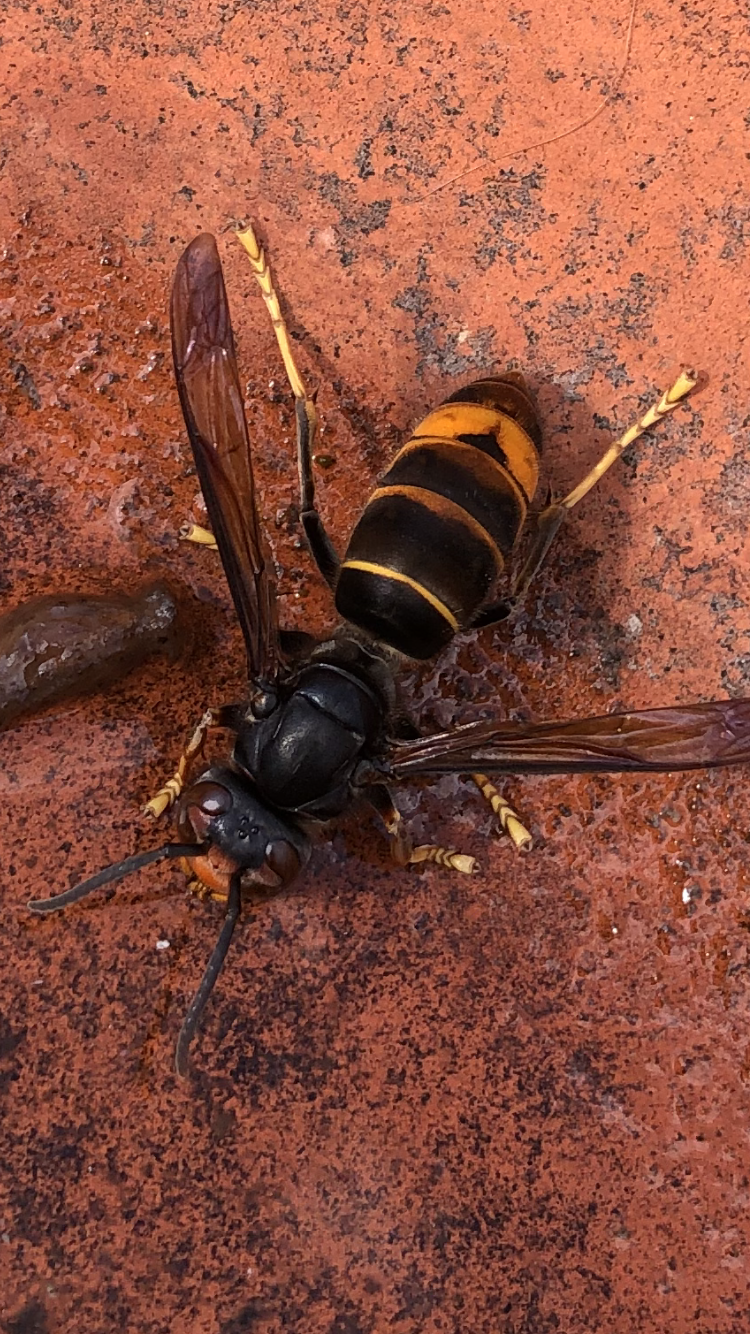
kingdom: Animalia
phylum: Arthropoda
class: Insecta
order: Hymenoptera
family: Vespidae
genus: Vespa
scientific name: Vespa velutina
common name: Asian hornet
